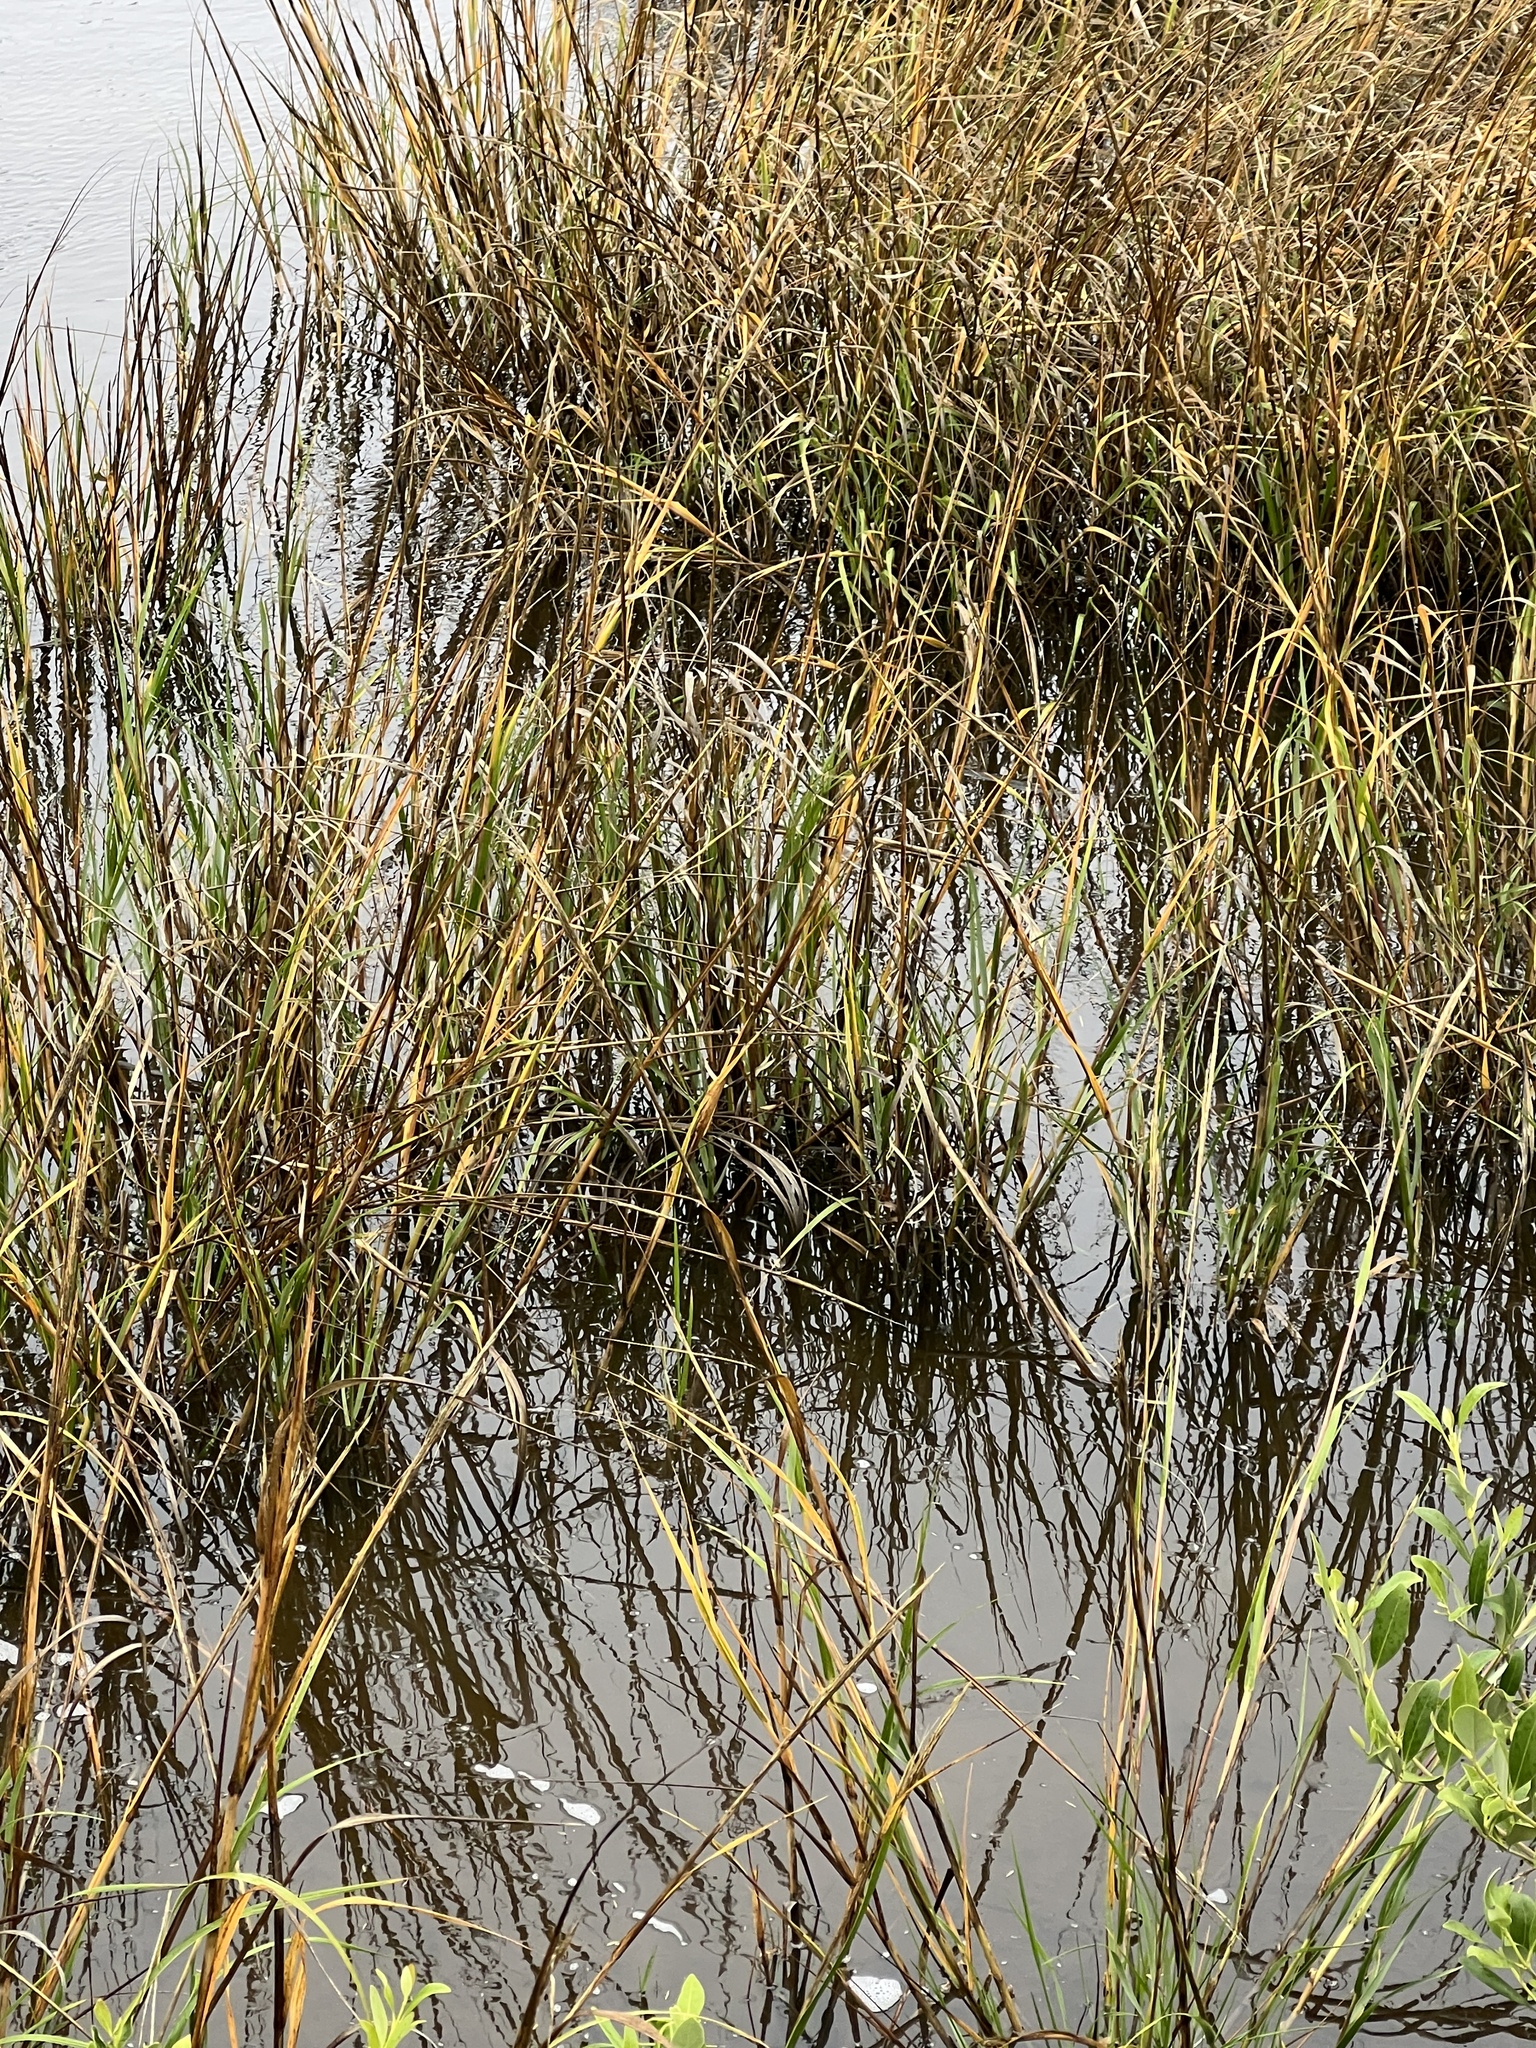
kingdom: Plantae
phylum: Tracheophyta
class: Liliopsida
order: Poales
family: Poaceae
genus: Sporobolus
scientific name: Sporobolus alterniflorus
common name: Atlantic cordgrass
